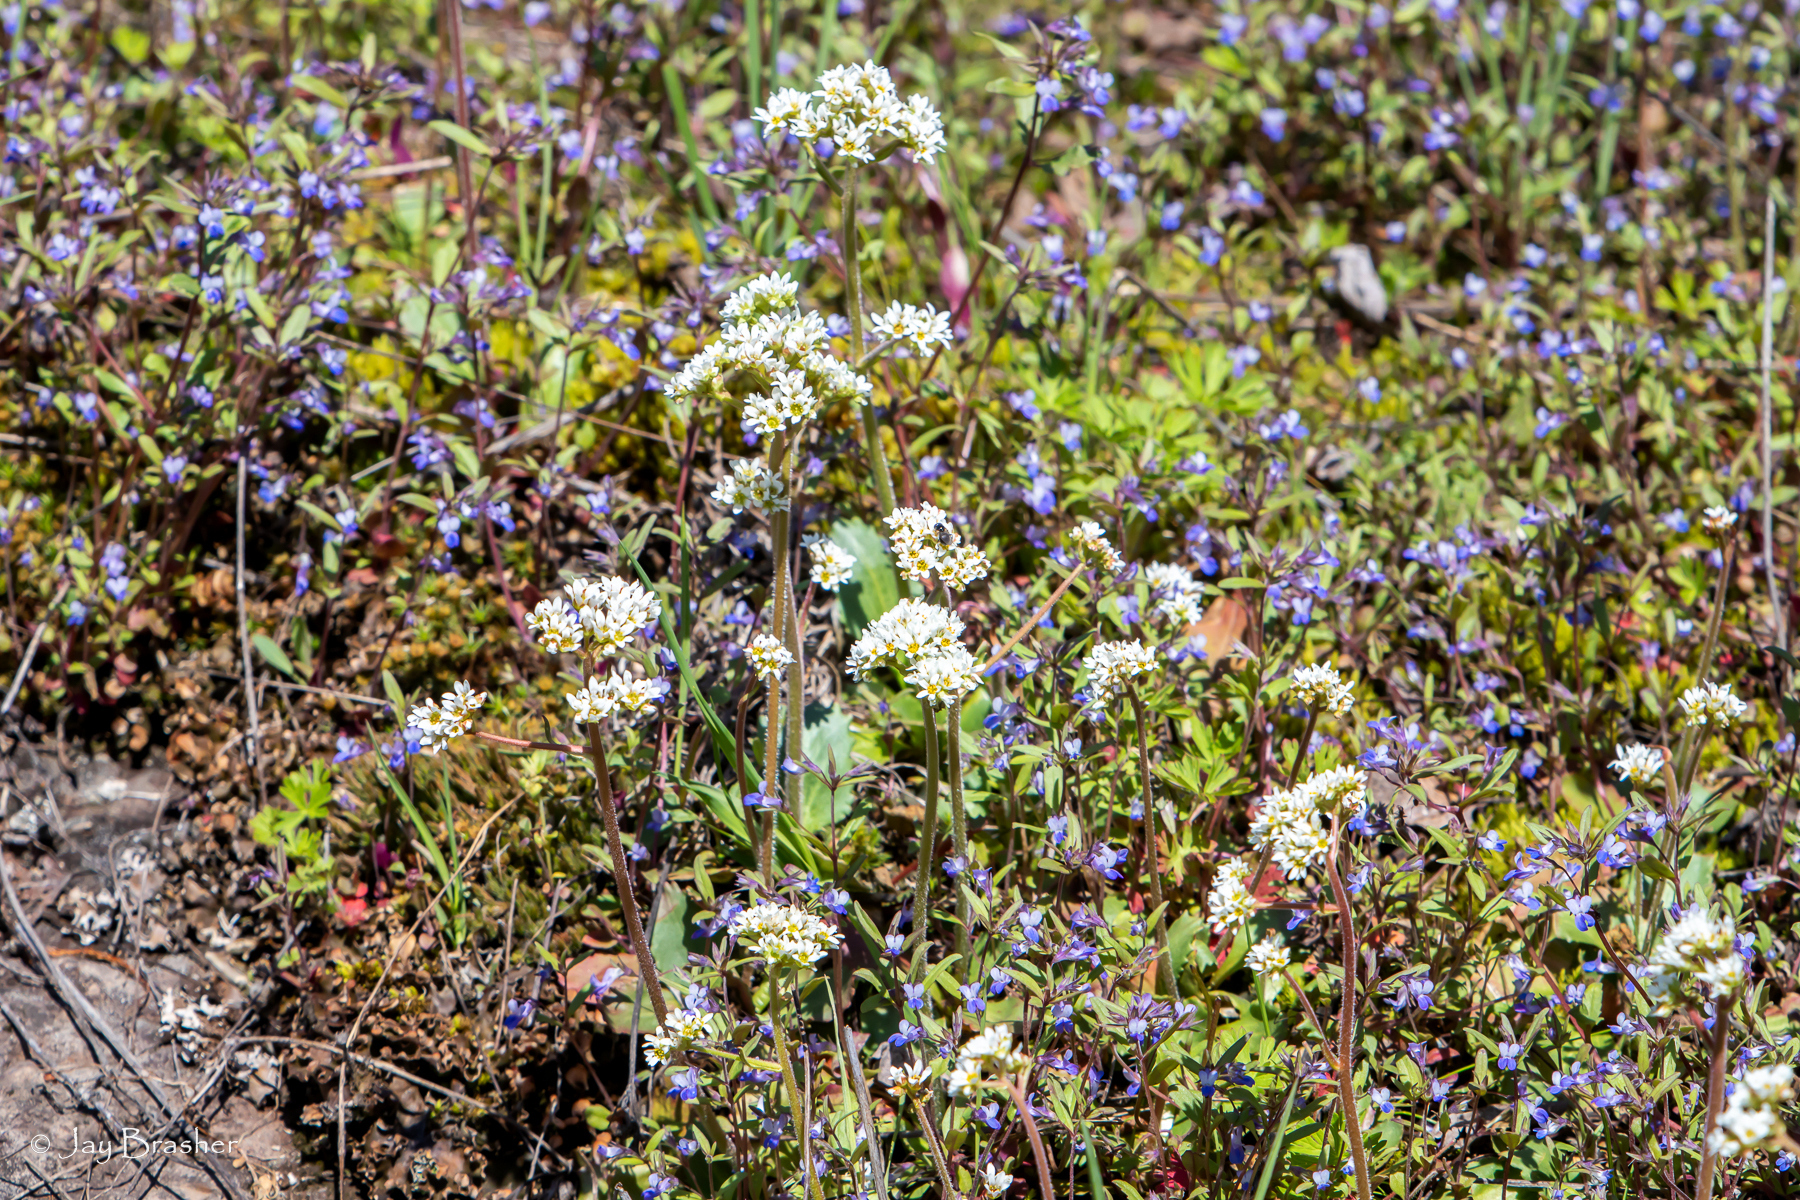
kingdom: Plantae
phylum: Tracheophyta
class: Magnoliopsida
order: Saxifragales
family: Saxifragaceae
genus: Micranthes
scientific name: Micranthes virginiensis
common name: Early saxifrage
